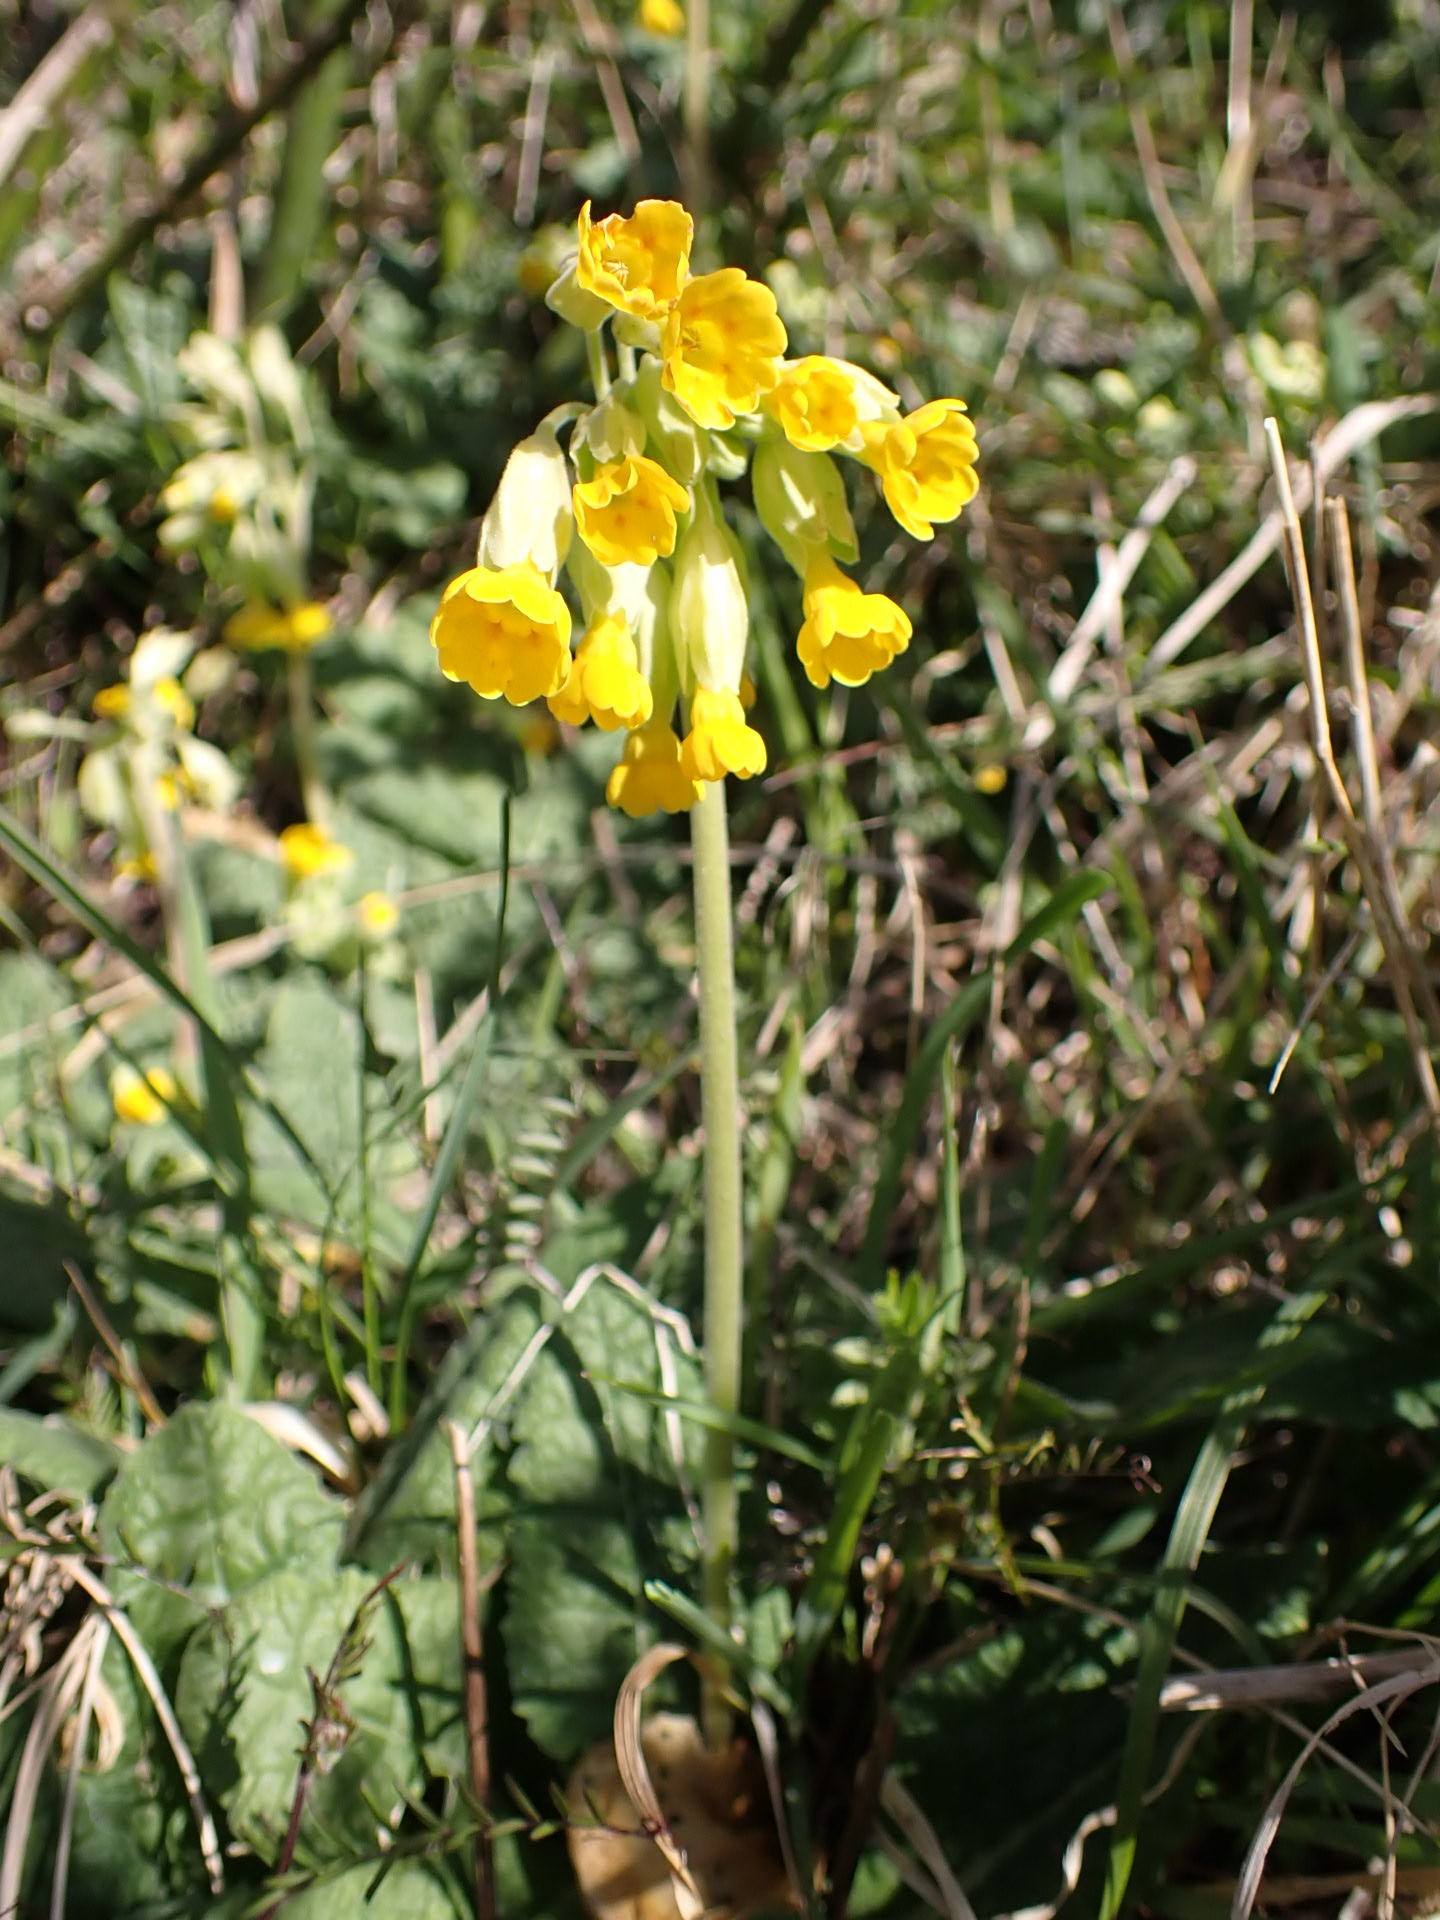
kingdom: Plantae
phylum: Tracheophyta
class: Magnoliopsida
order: Ericales
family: Primulaceae
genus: Primula
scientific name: Primula veris
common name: Cowslip
